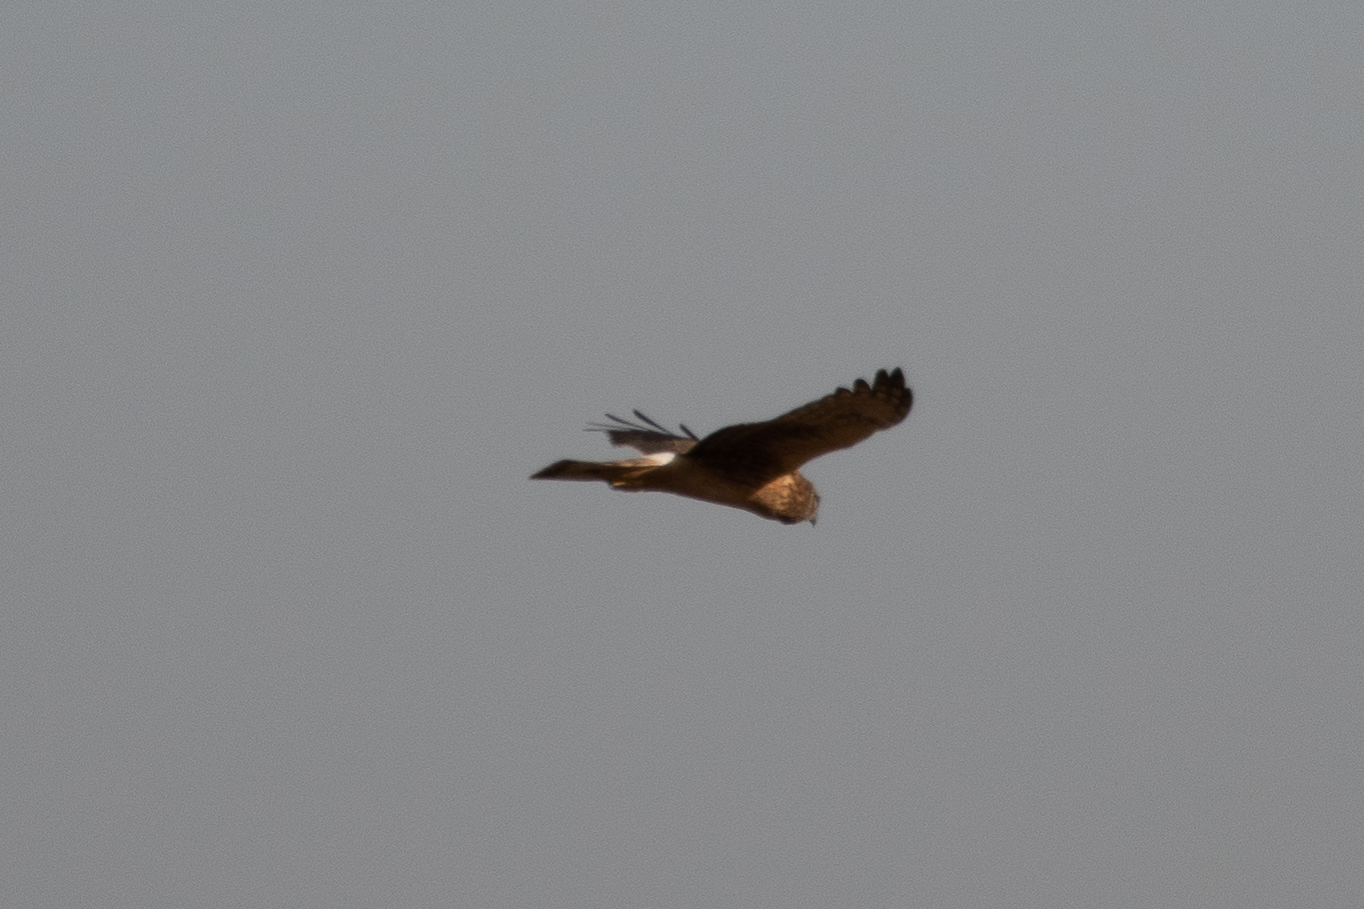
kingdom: Animalia
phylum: Chordata
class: Aves
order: Accipitriformes
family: Accipitridae
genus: Circus
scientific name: Circus cyaneus
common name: Hen harrier
